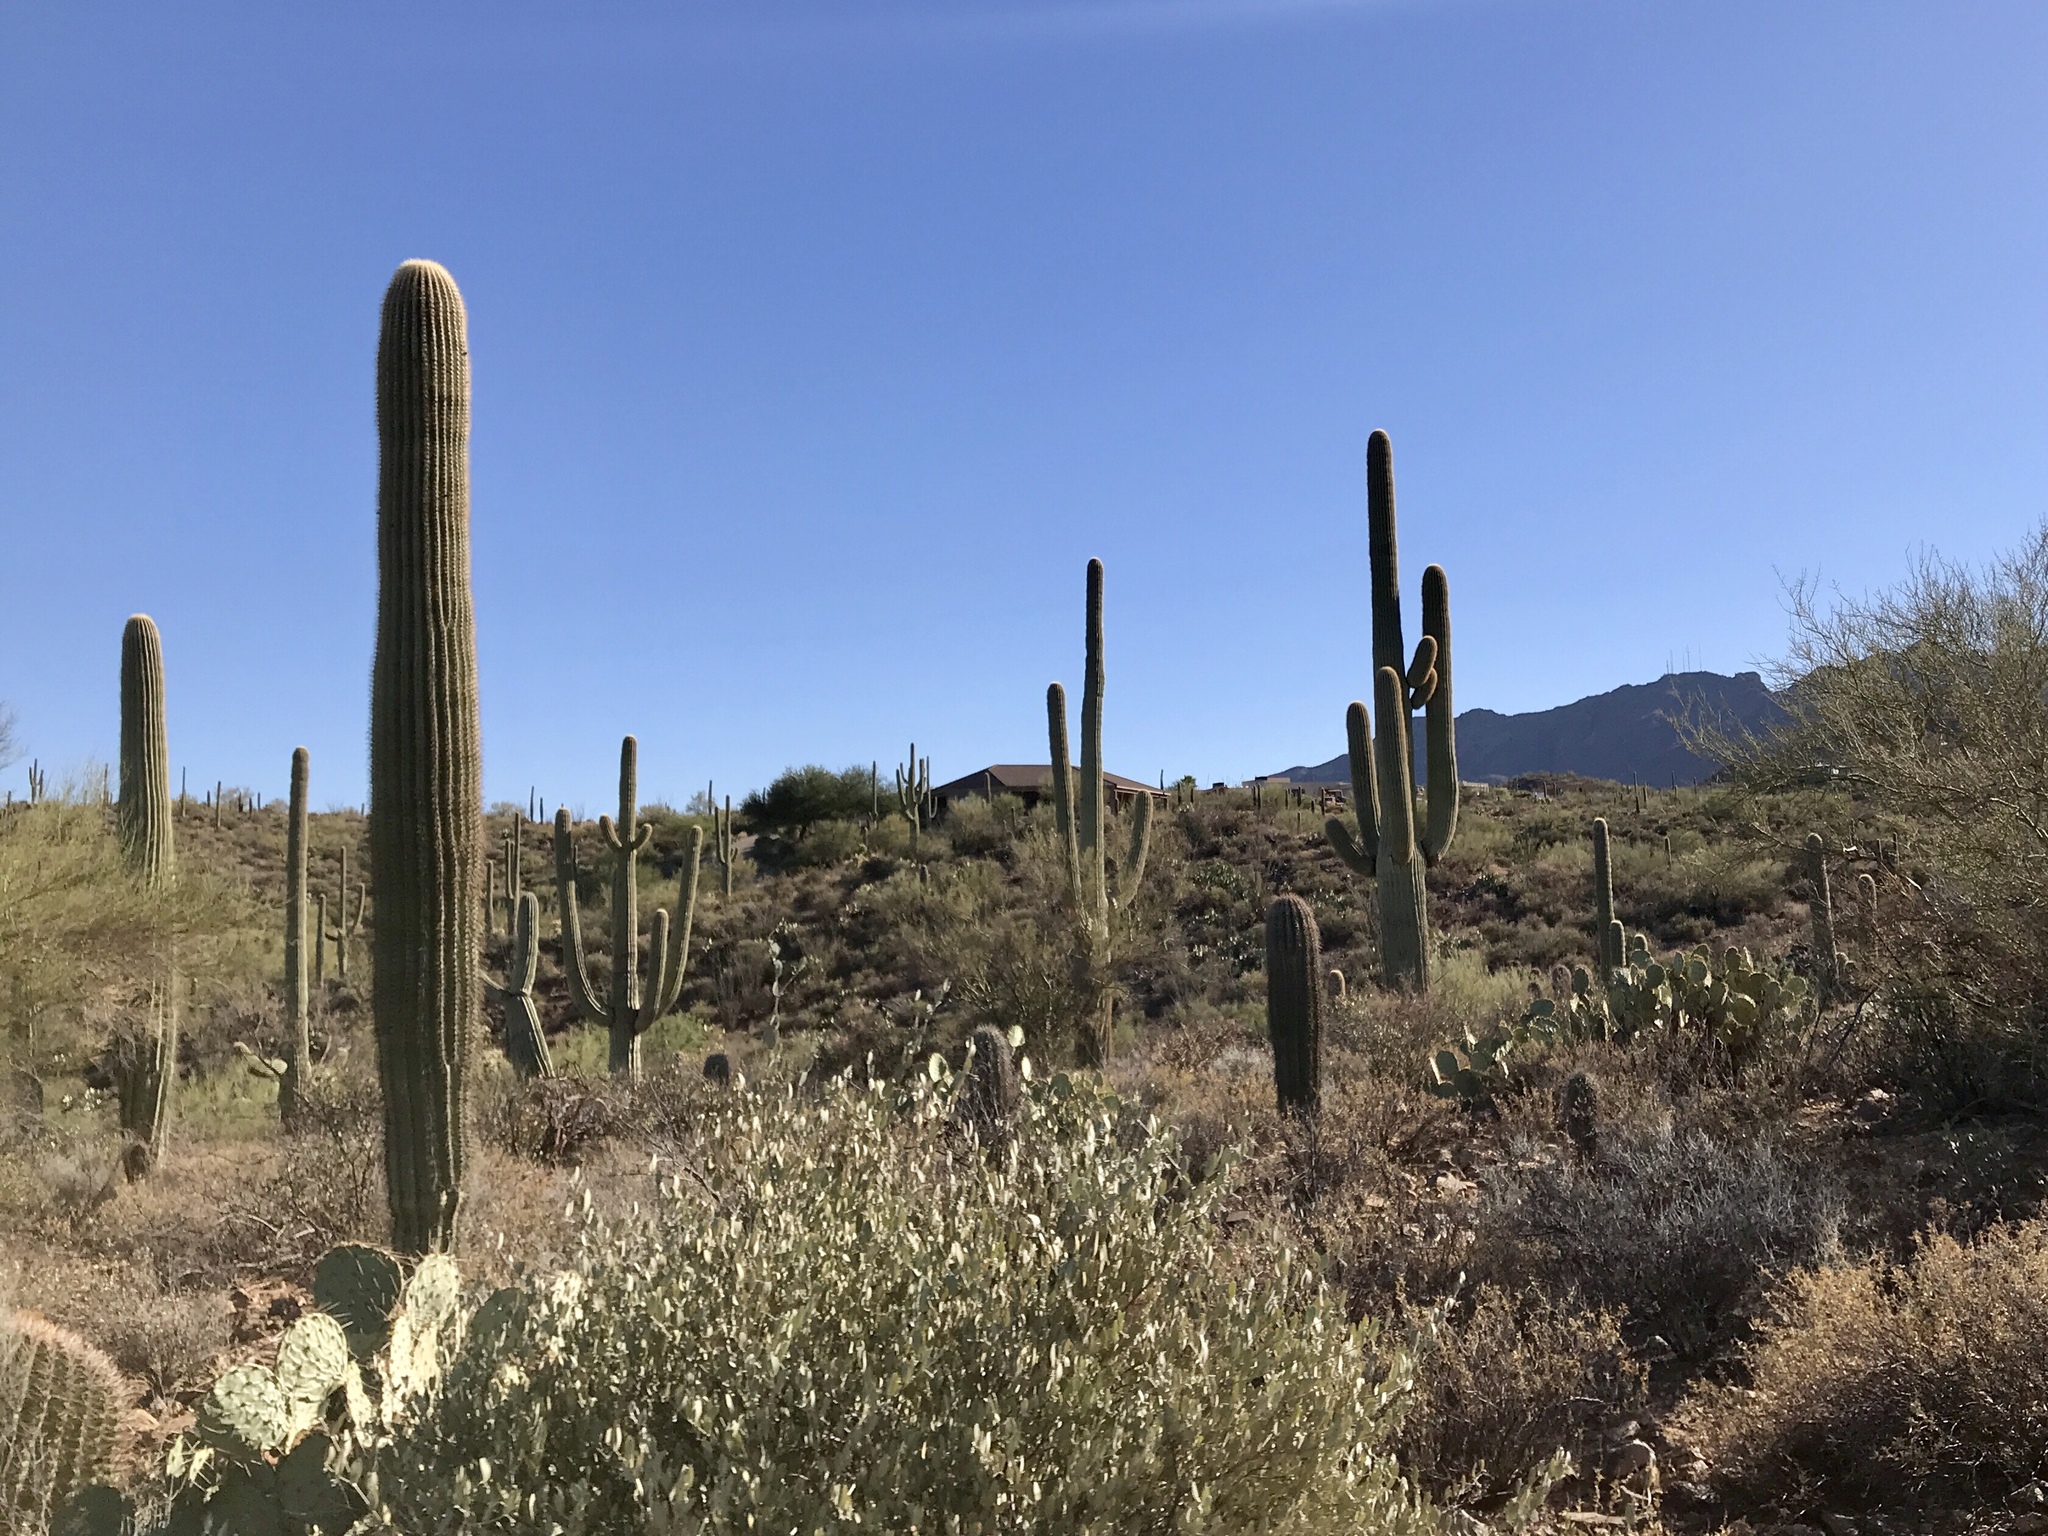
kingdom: Plantae
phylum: Tracheophyta
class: Magnoliopsida
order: Caryophyllales
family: Cactaceae
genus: Carnegiea
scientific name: Carnegiea gigantea
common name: Saguaro
